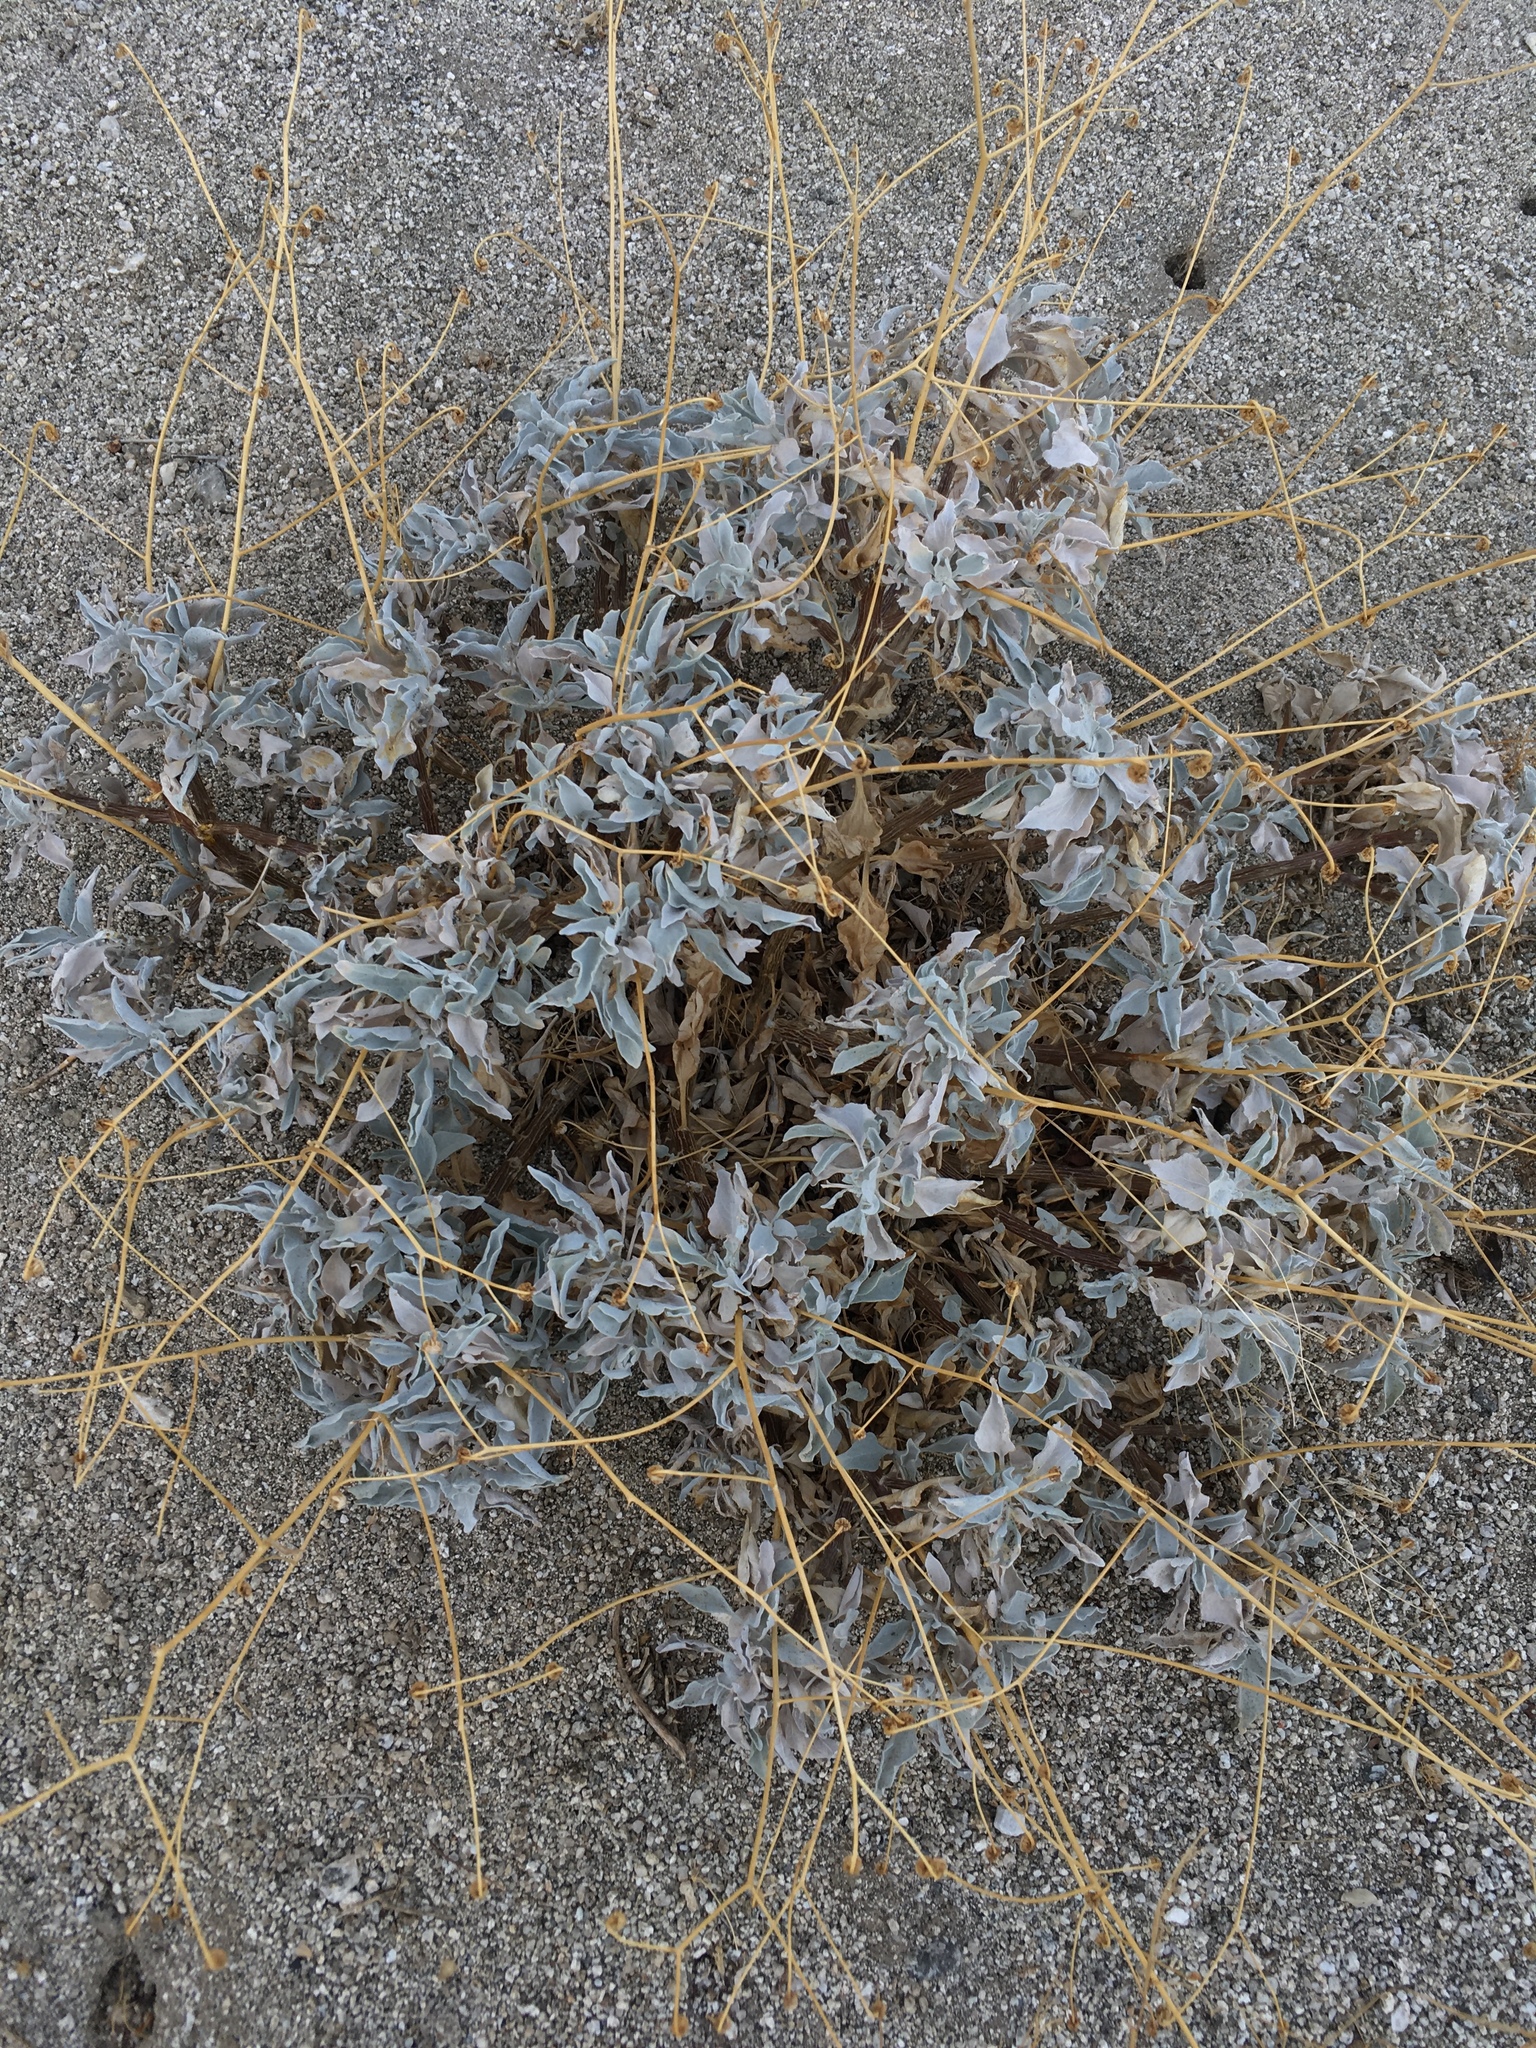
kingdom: Plantae
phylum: Tracheophyta
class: Magnoliopsida
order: Asterales
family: Asteraceae
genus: Encelia
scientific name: Encelia farinosa
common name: Brittlebush
